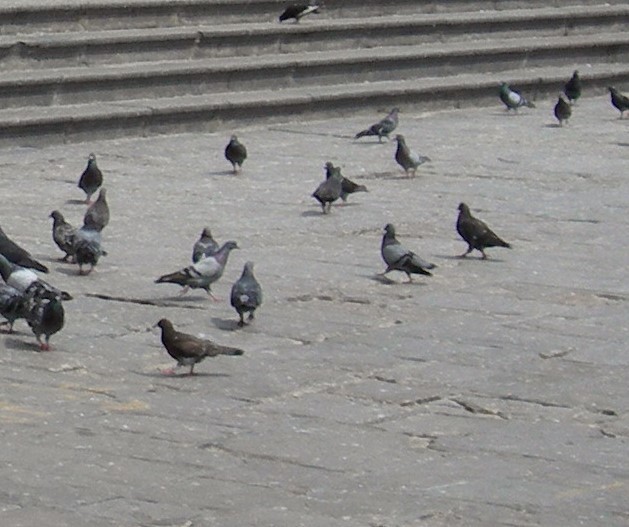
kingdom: Animalia
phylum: Chordata
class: Aves
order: Columbiformes
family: Columbidae
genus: Columba
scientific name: Columba livia
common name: Rock pigeon
